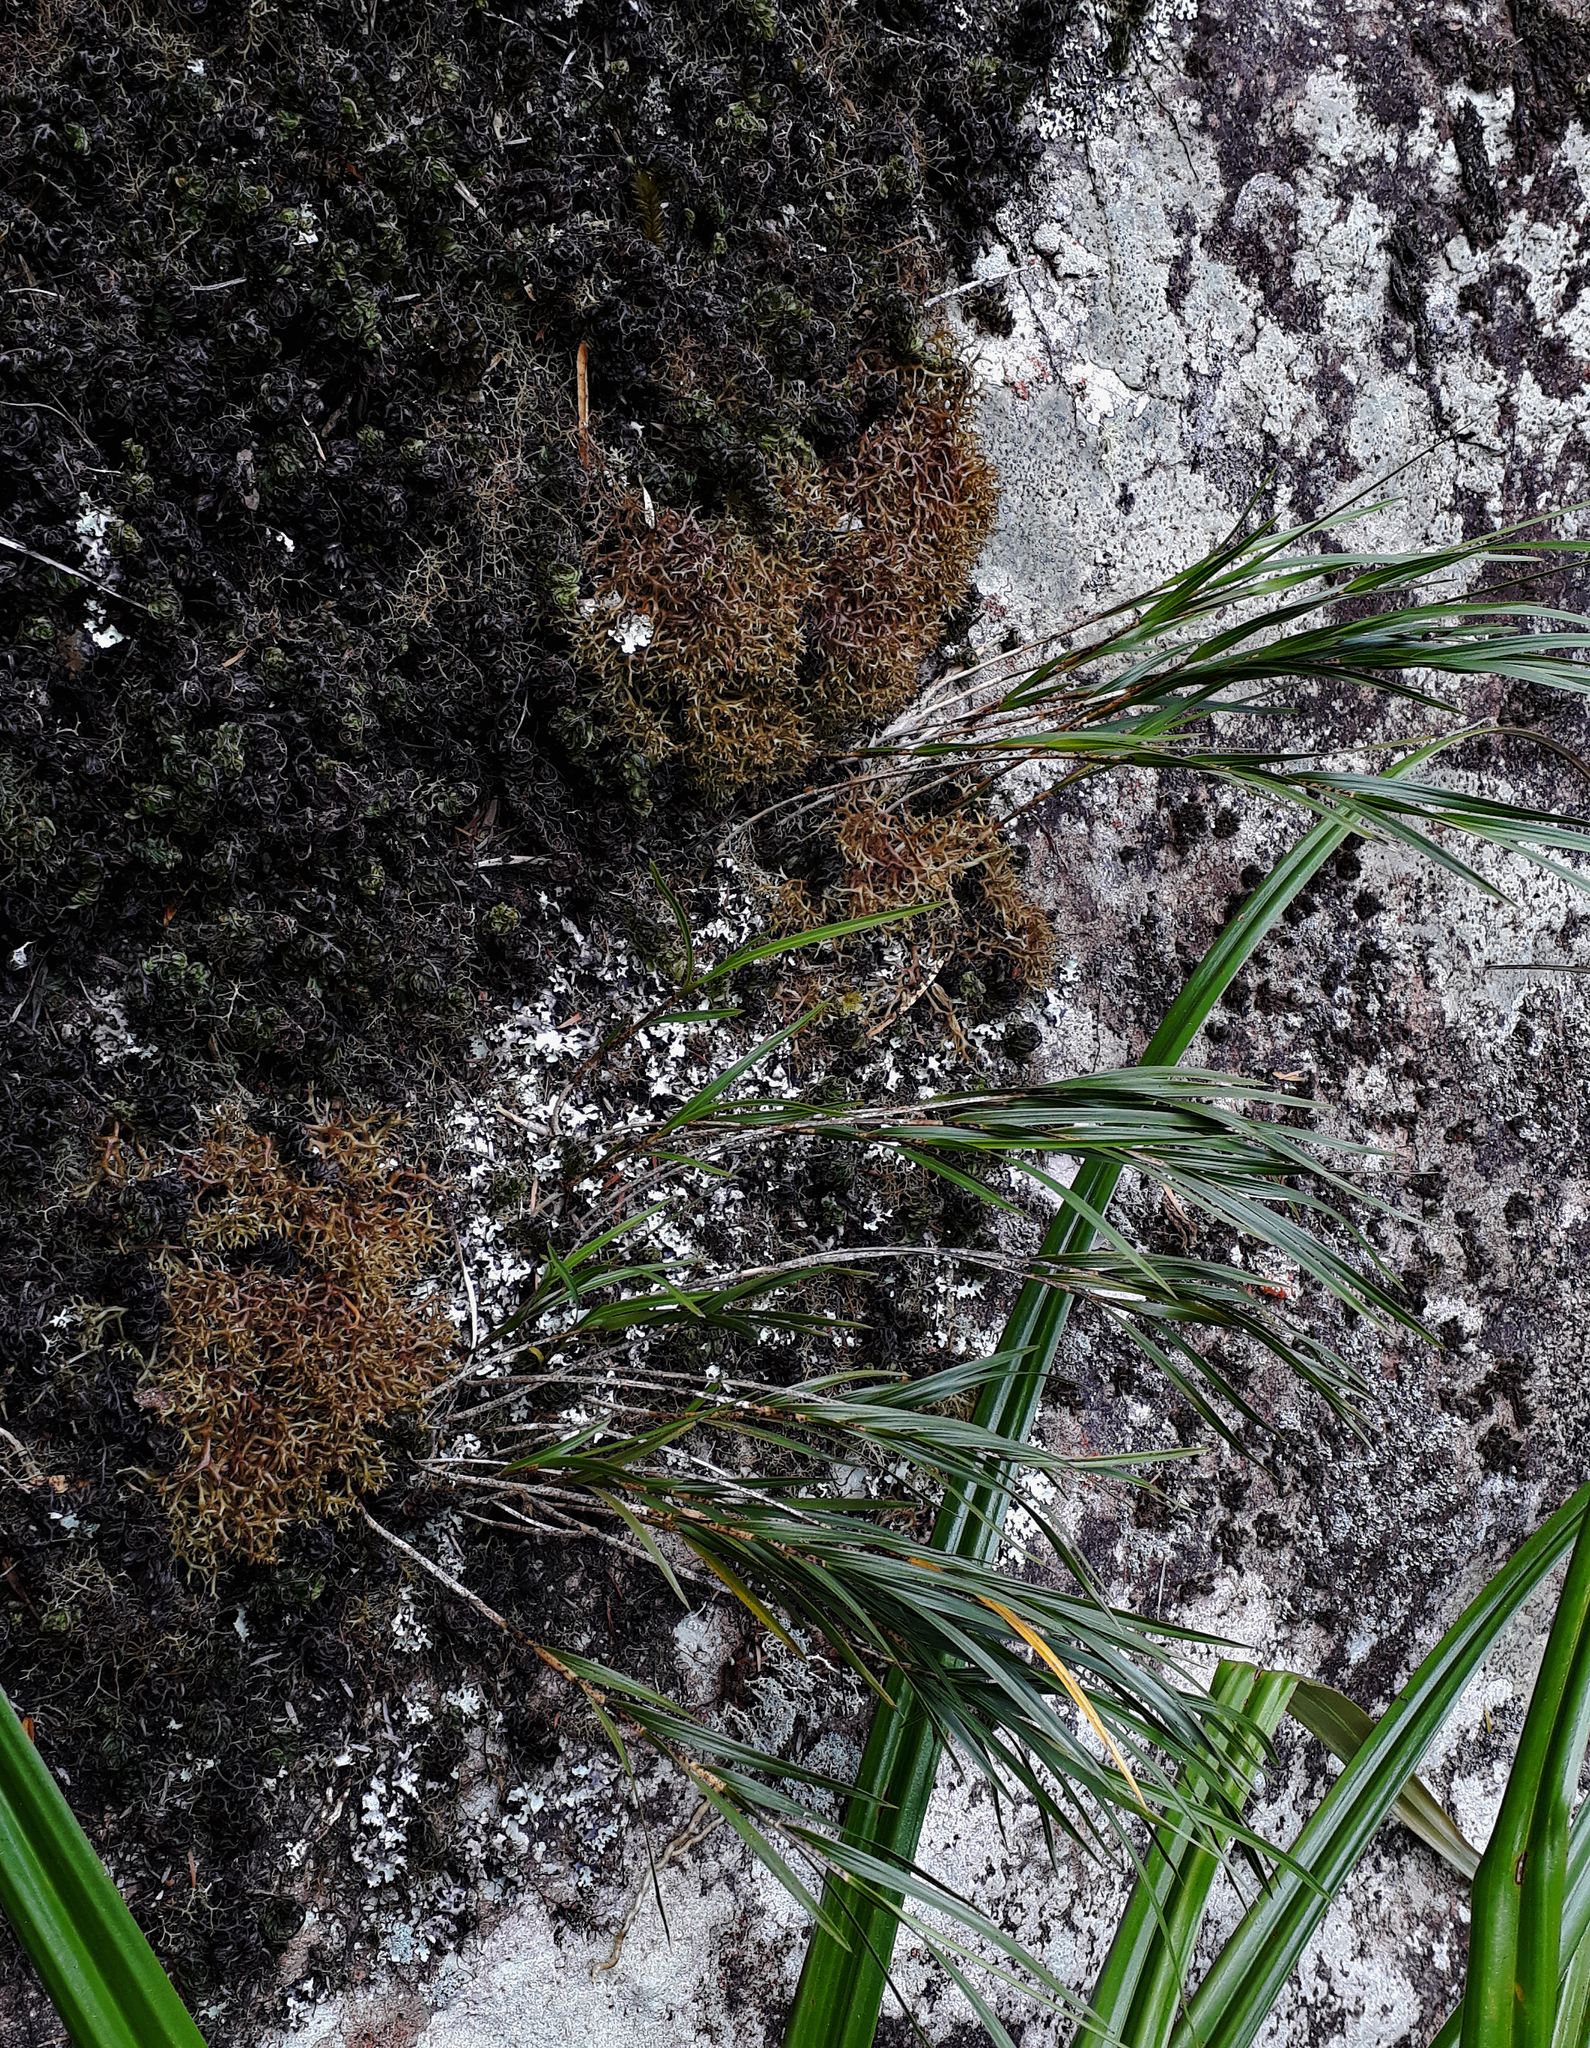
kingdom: Plantae
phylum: Tracheophyta
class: Liliopsida
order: Asparagales
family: Orchidaceae
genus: Earina
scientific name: Earina mucronata
